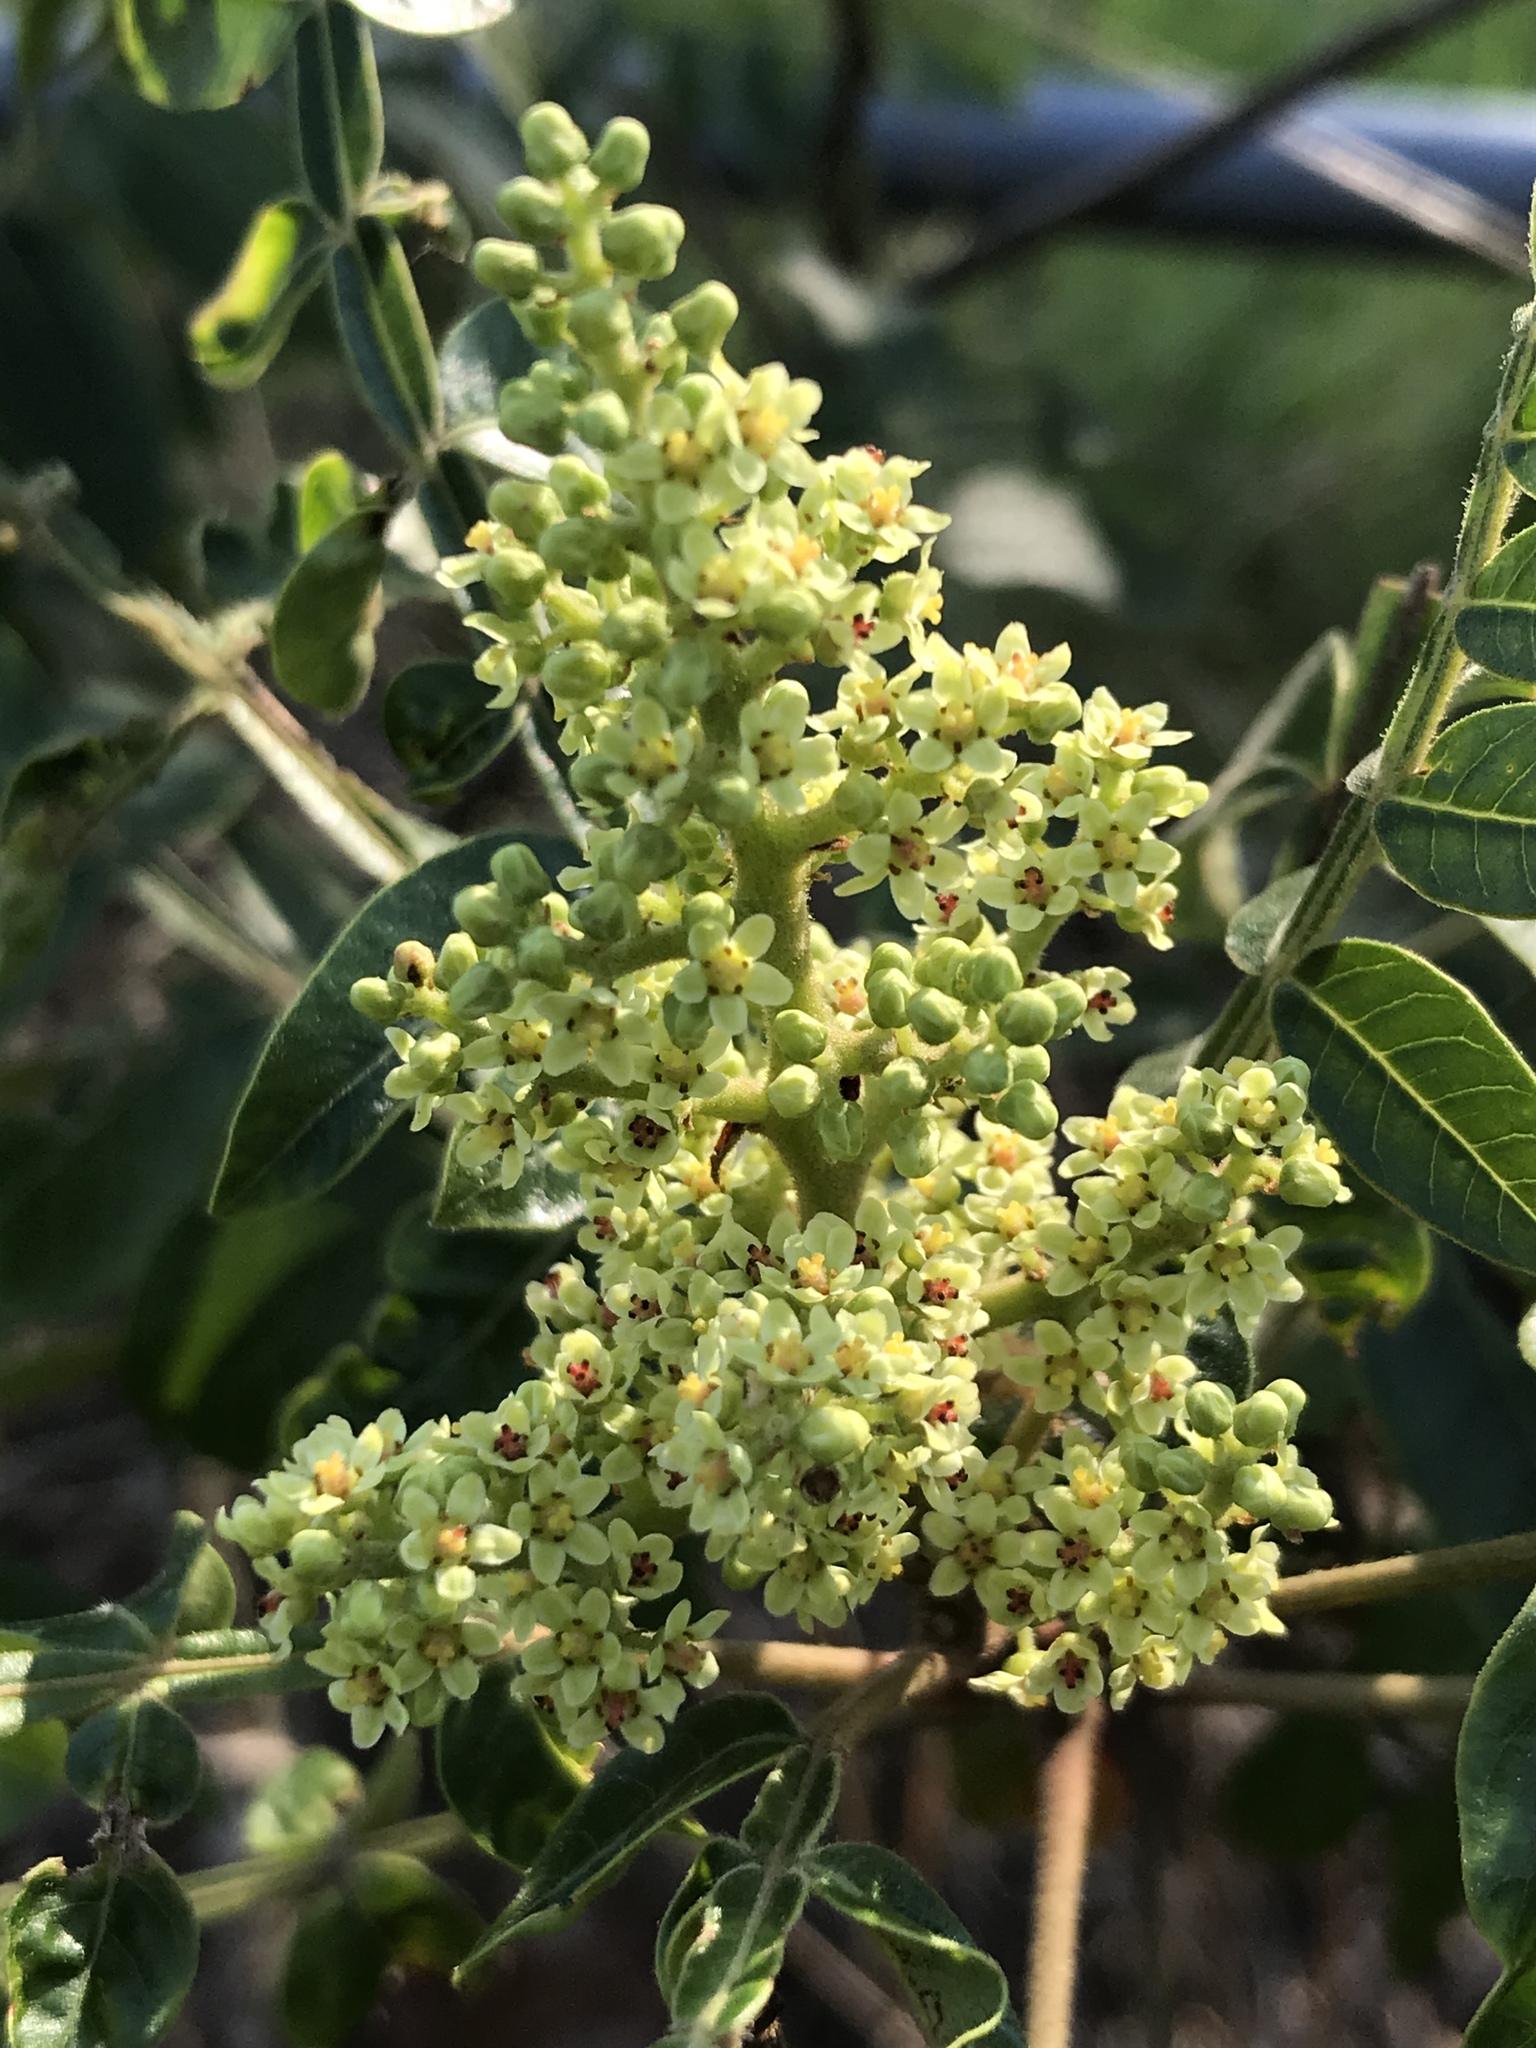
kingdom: Plantae
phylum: Tracheophyta
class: Magnoliopsida
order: Sapindales
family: Anacardiaceae
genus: Rhus
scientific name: Rhus copallina
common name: Shining sumac
